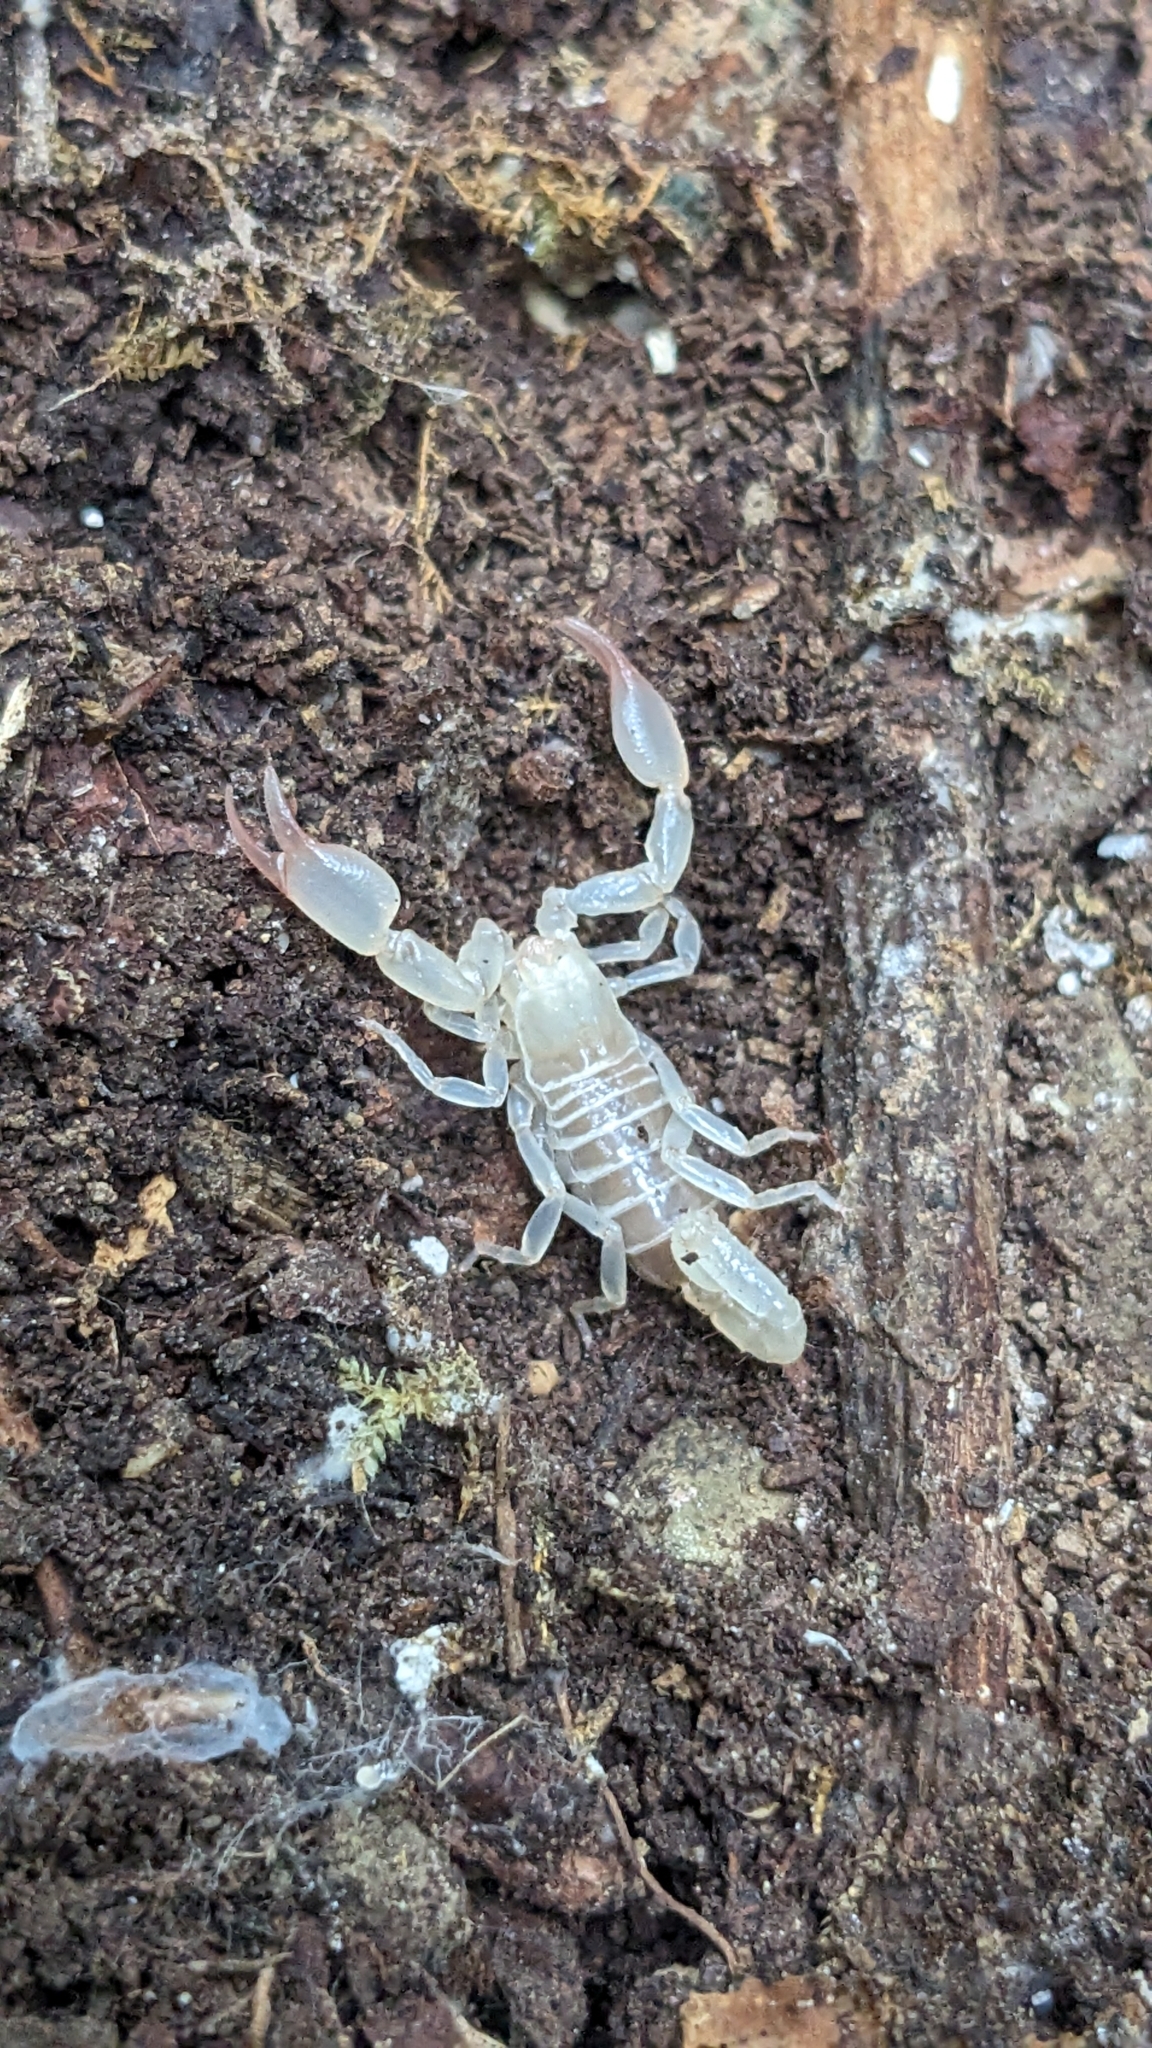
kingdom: Animalia
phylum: Arthropoda
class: Arachnida
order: Scorpiones
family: Belisariidae
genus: Belisarius
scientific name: Belisarius xambeui
